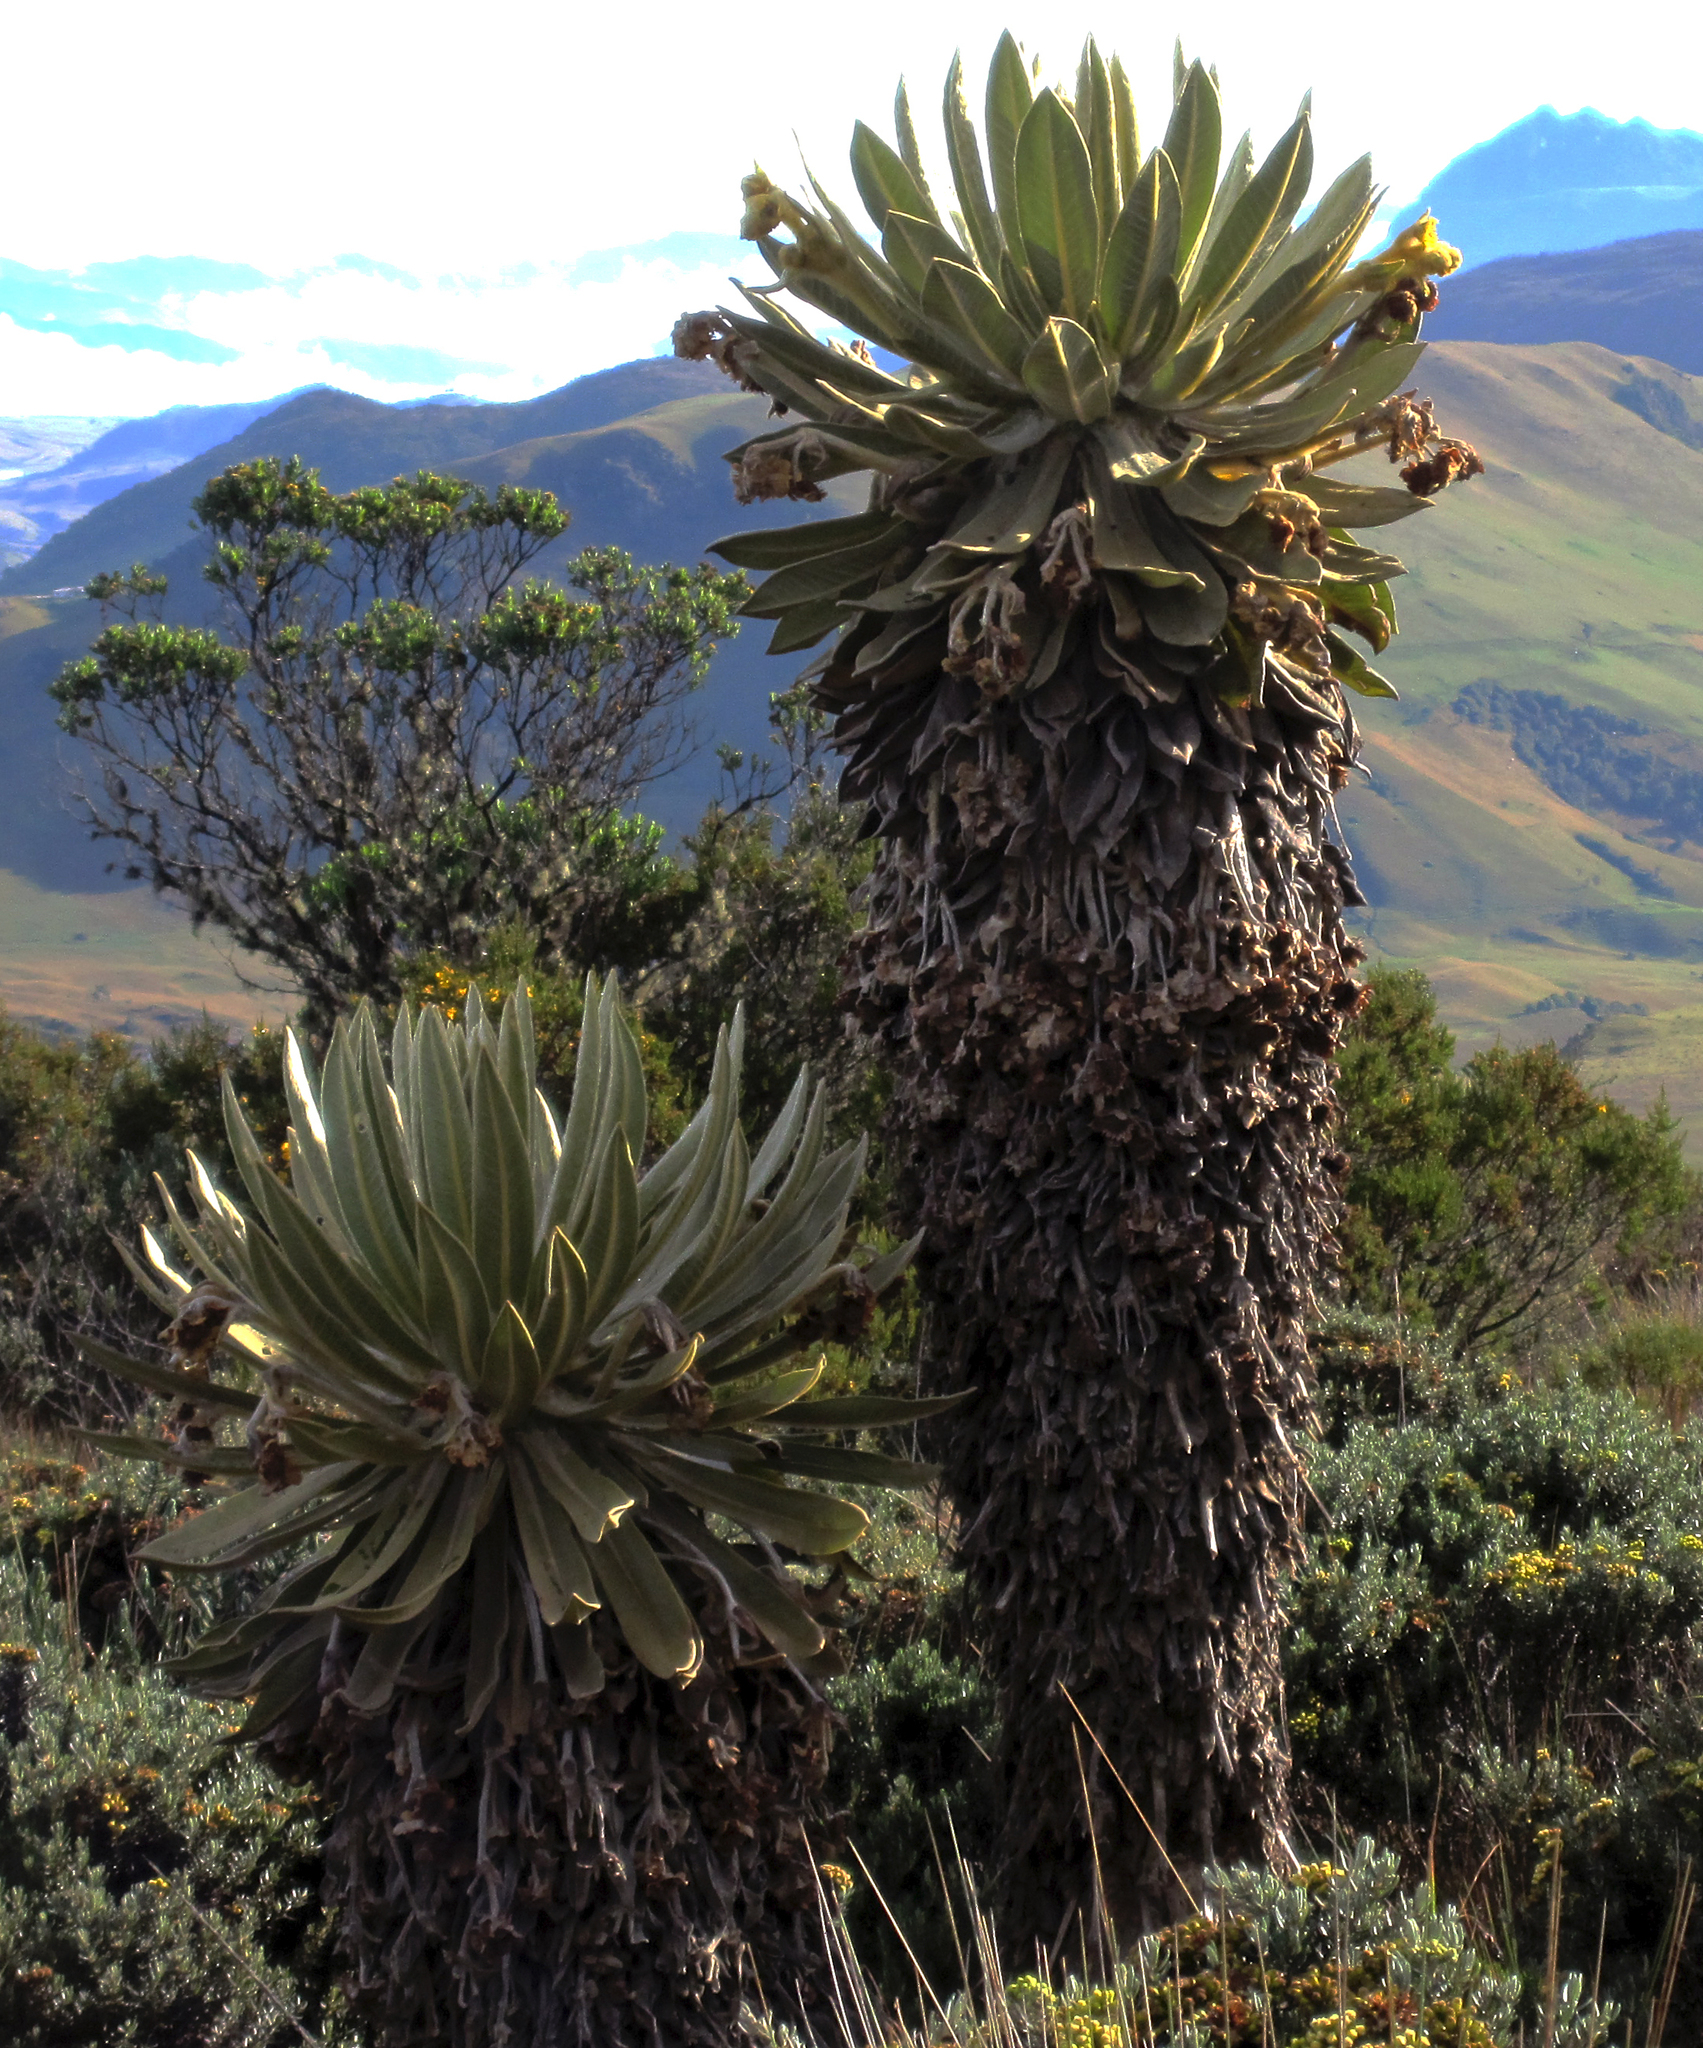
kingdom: Plantae
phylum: Tracheophyta
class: Magnoliopsida
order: Asterales
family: Asteraceae
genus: Espeletia
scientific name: Espeletia hartwegiana
